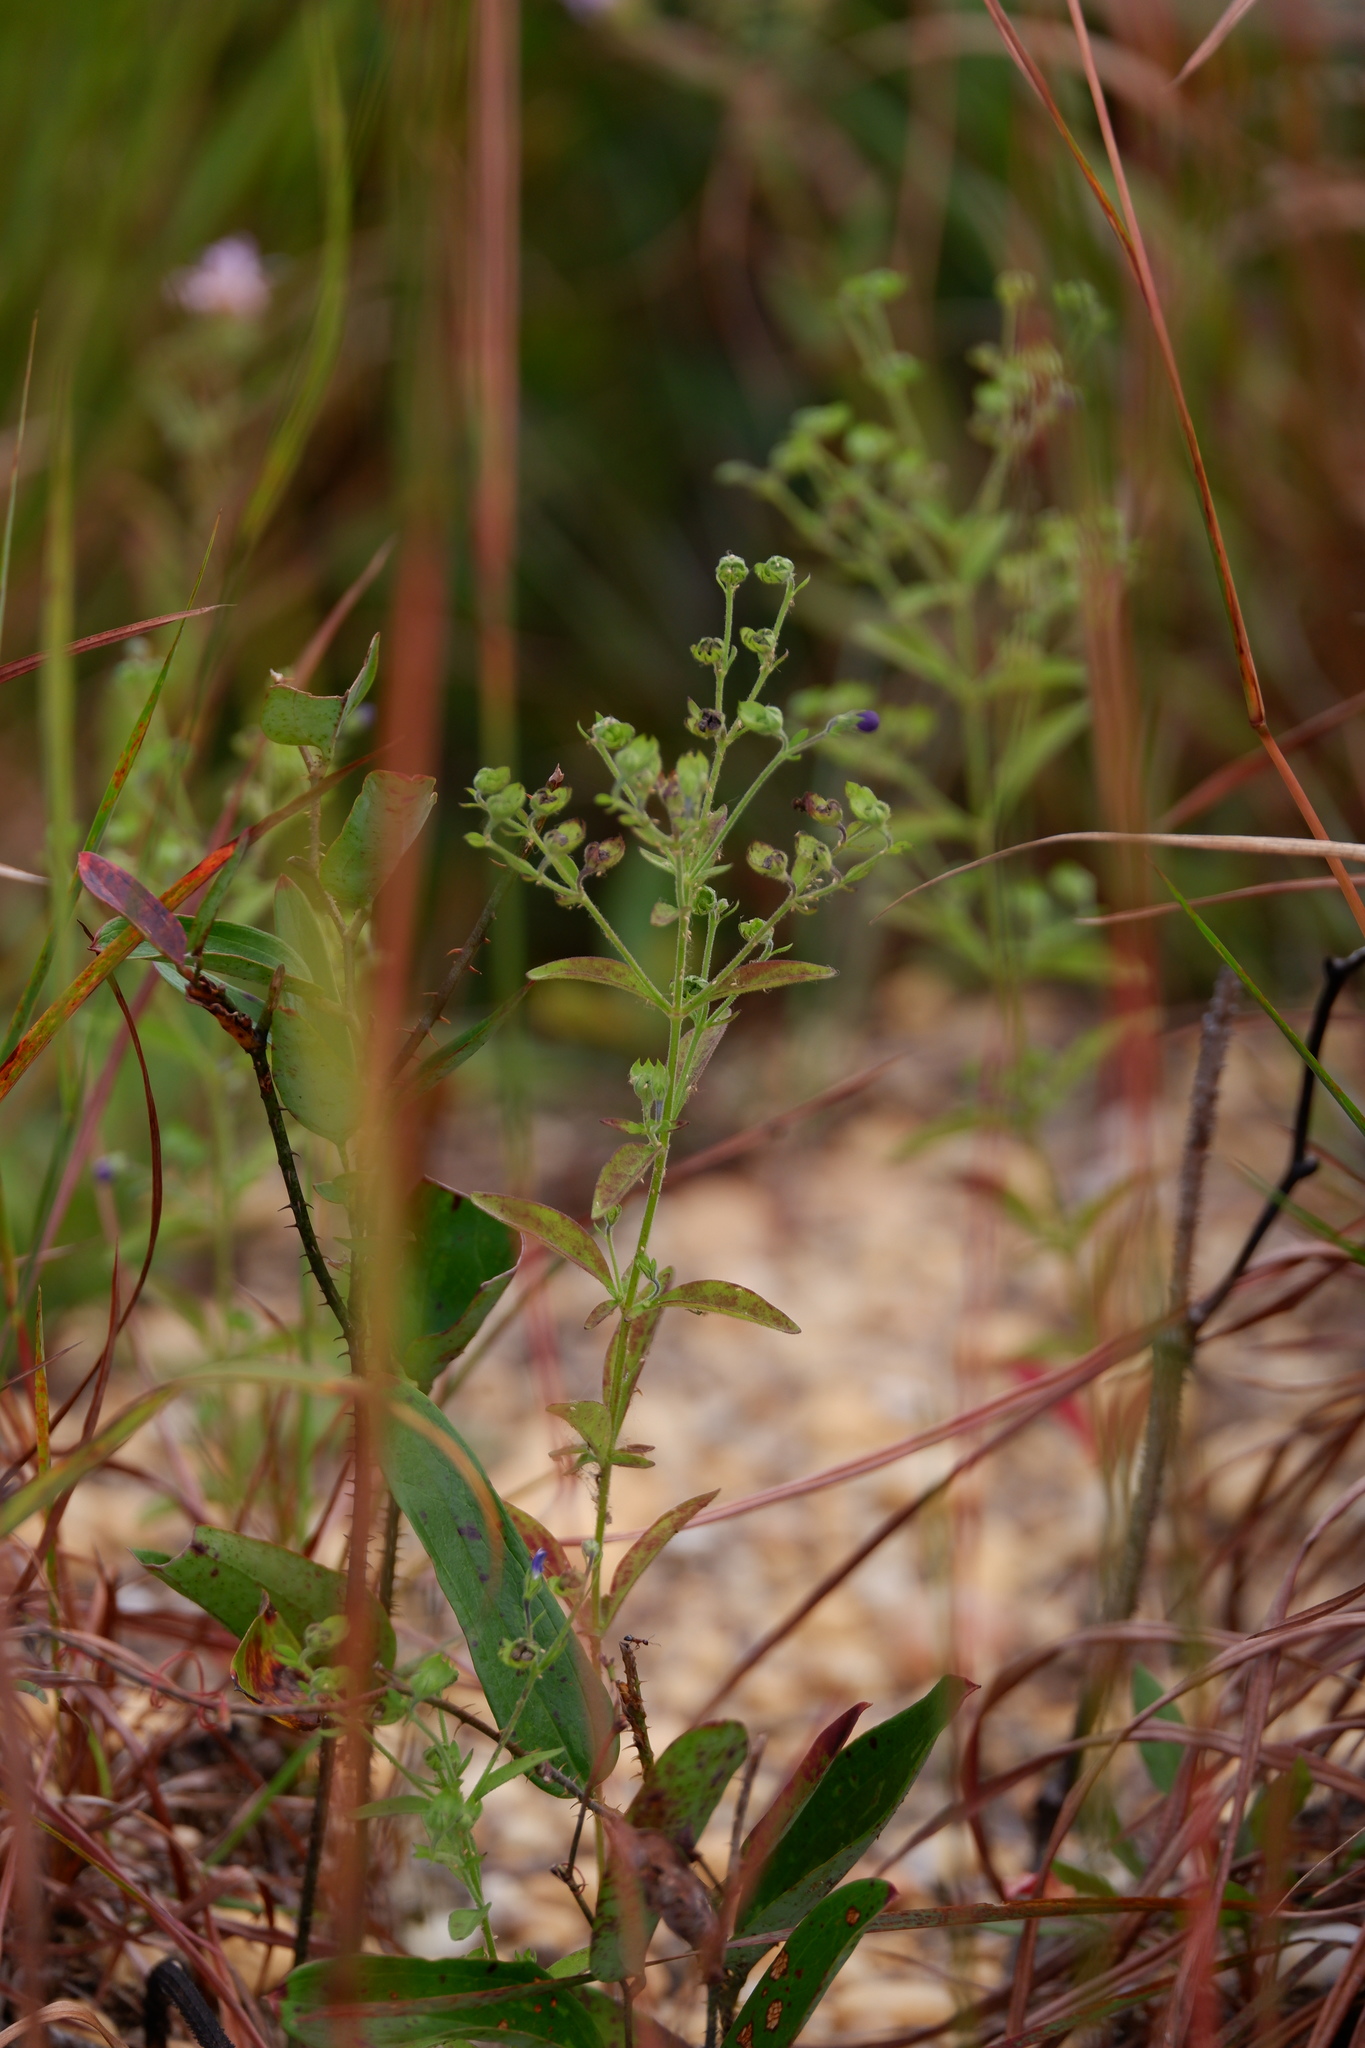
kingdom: Plantae
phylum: Tracheophyta
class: Magnoliopsida
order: Lamiales
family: Lamiaceae
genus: Trichostema
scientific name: Trichostema dichotomum
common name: Bastard pennyroyal
